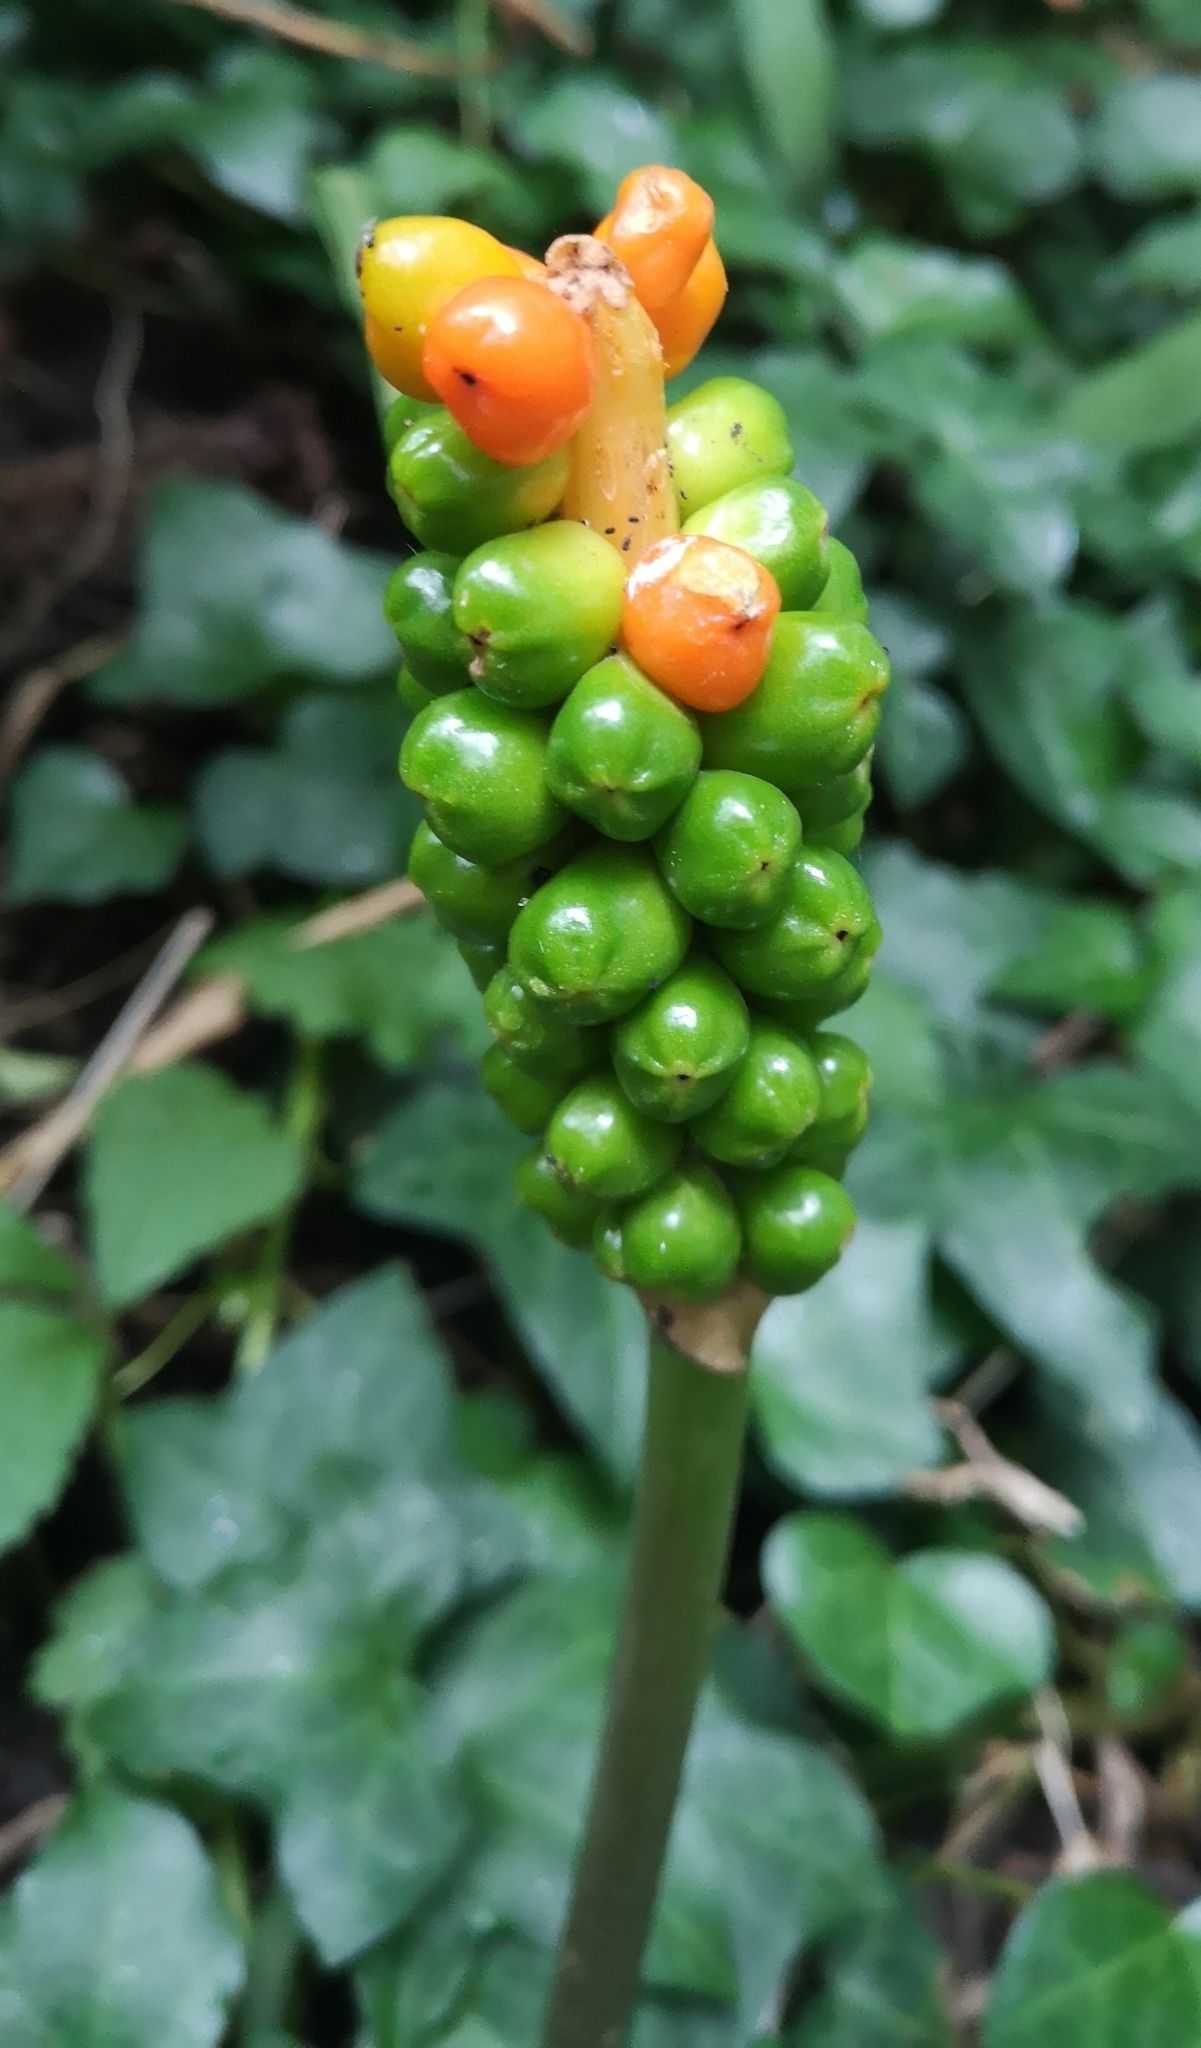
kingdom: Plantae
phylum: Tracheophyta
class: Liliopsida
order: Alismatales
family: Araceae
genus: Arum
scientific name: Arum maculatum
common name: Lords-and-ladies
